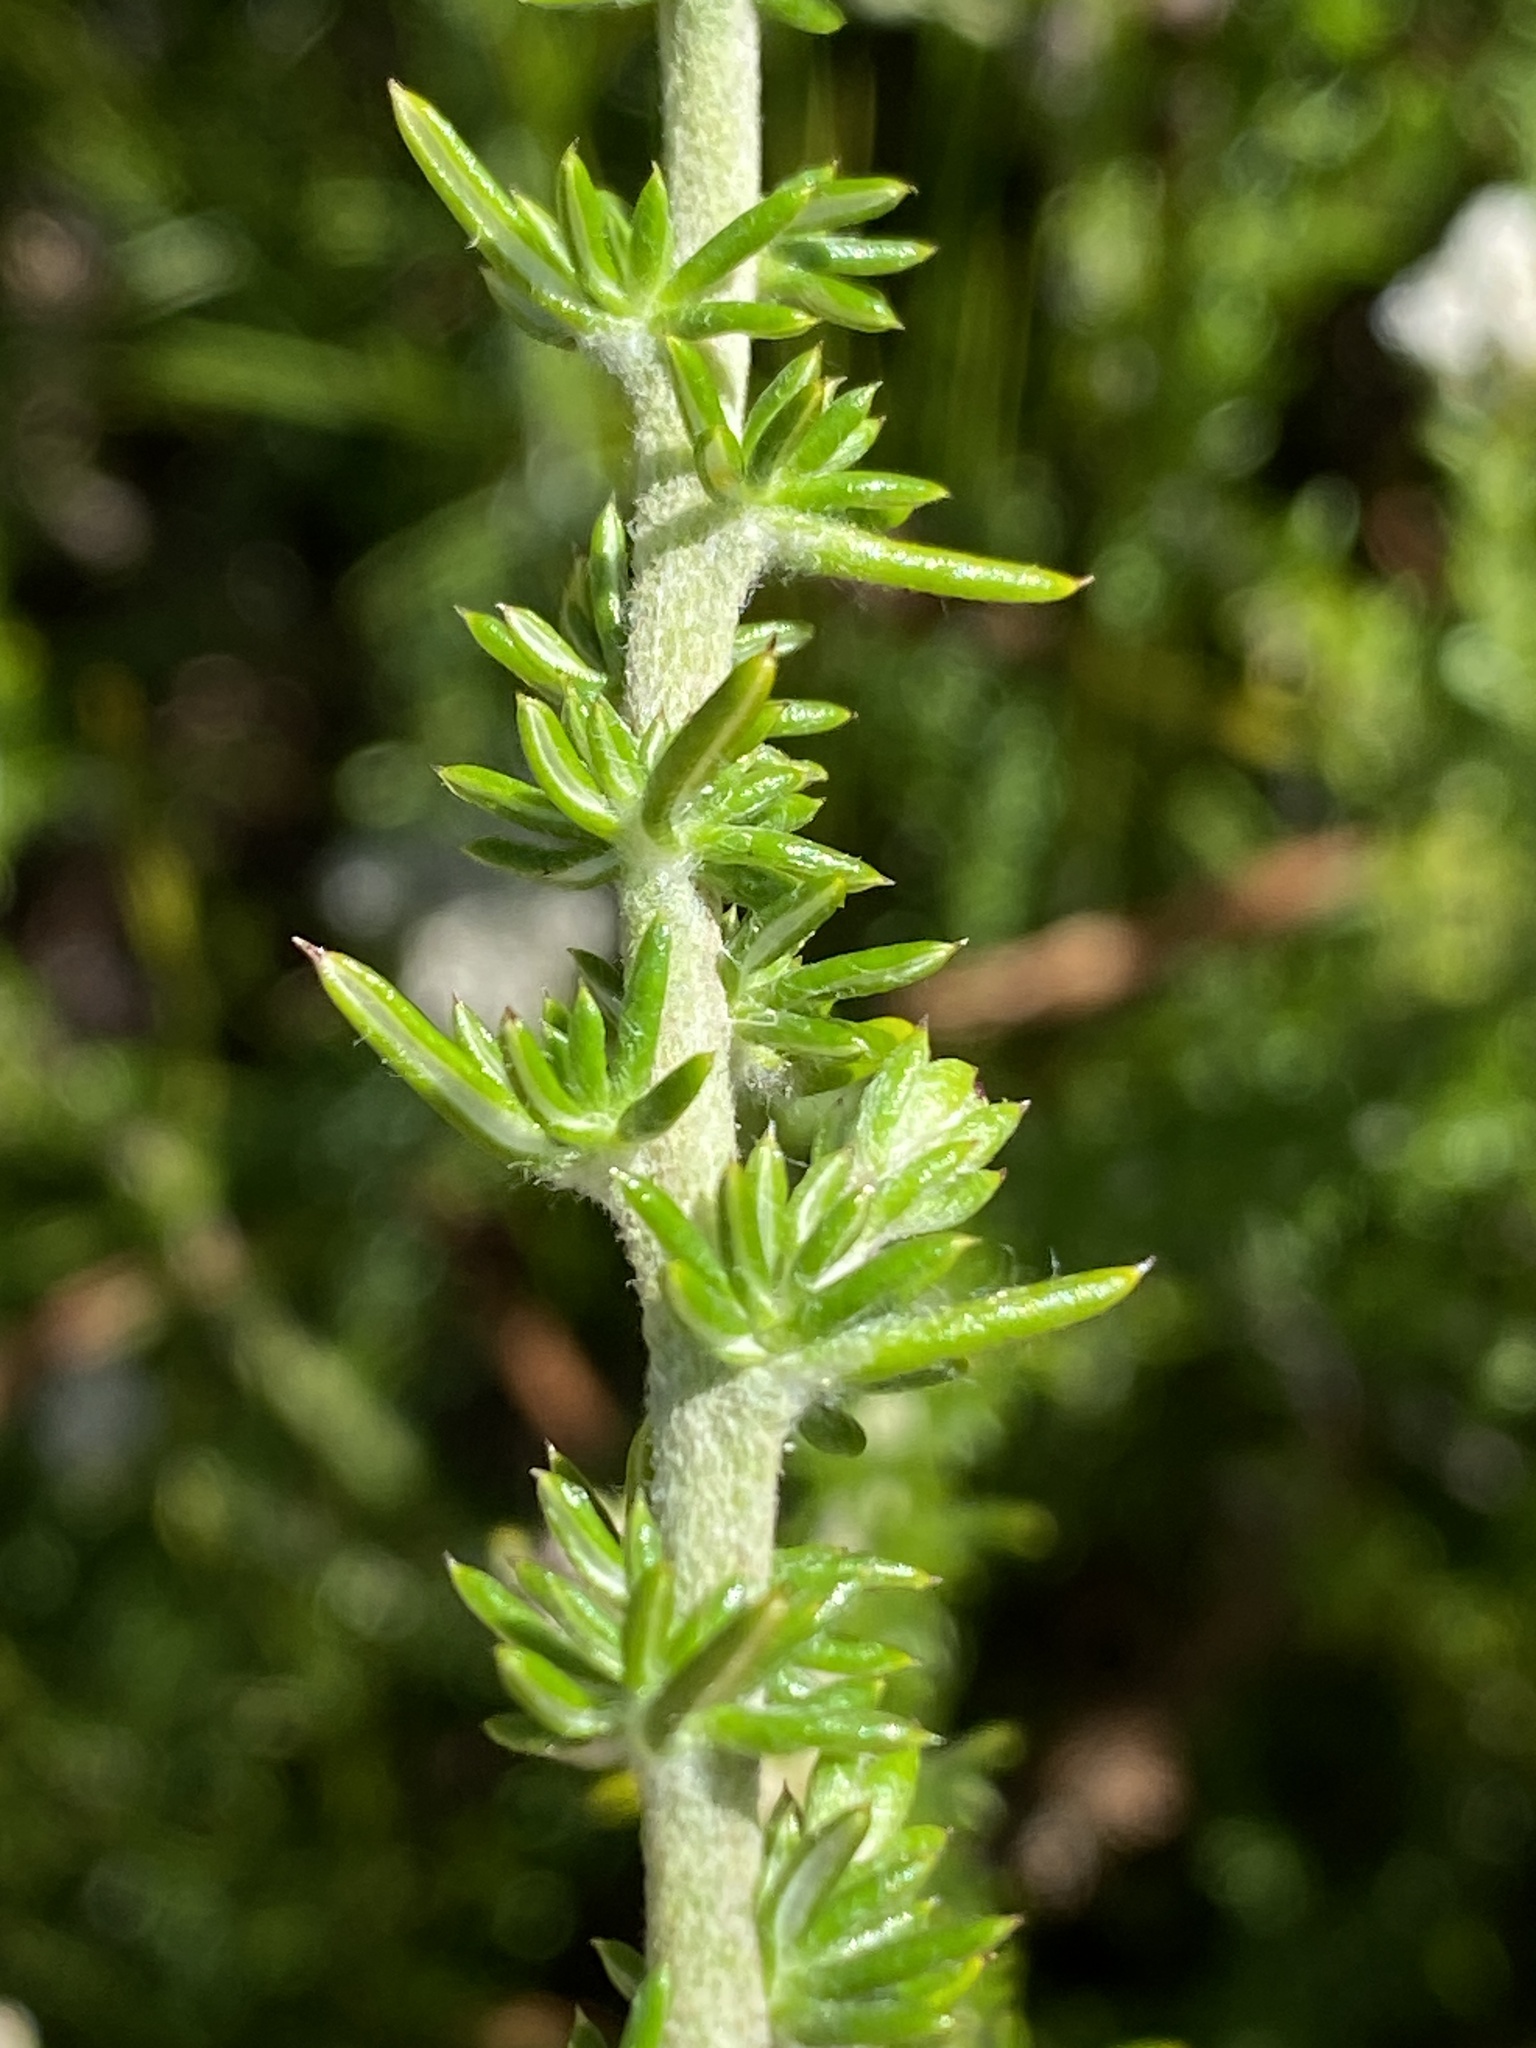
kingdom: Plantae
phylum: Tracheophyta
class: Magnoliopsida
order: Asterales
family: Asteraceae
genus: Metalasia
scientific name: Metalasia riparia
